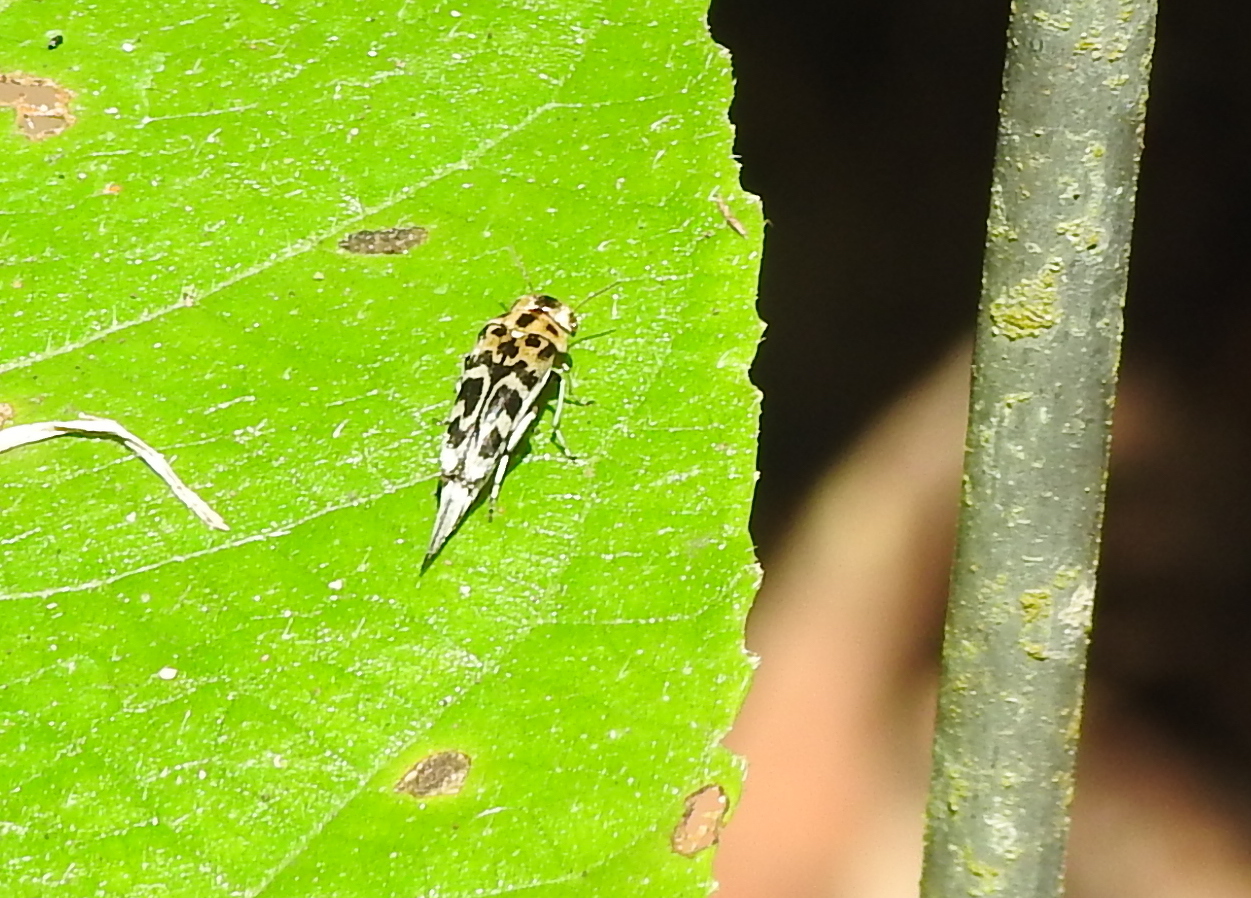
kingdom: Animalia
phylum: Arthropoda
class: Insecta
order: Coleoptera
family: Mordellidae
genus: Glipa
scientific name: Glipa
